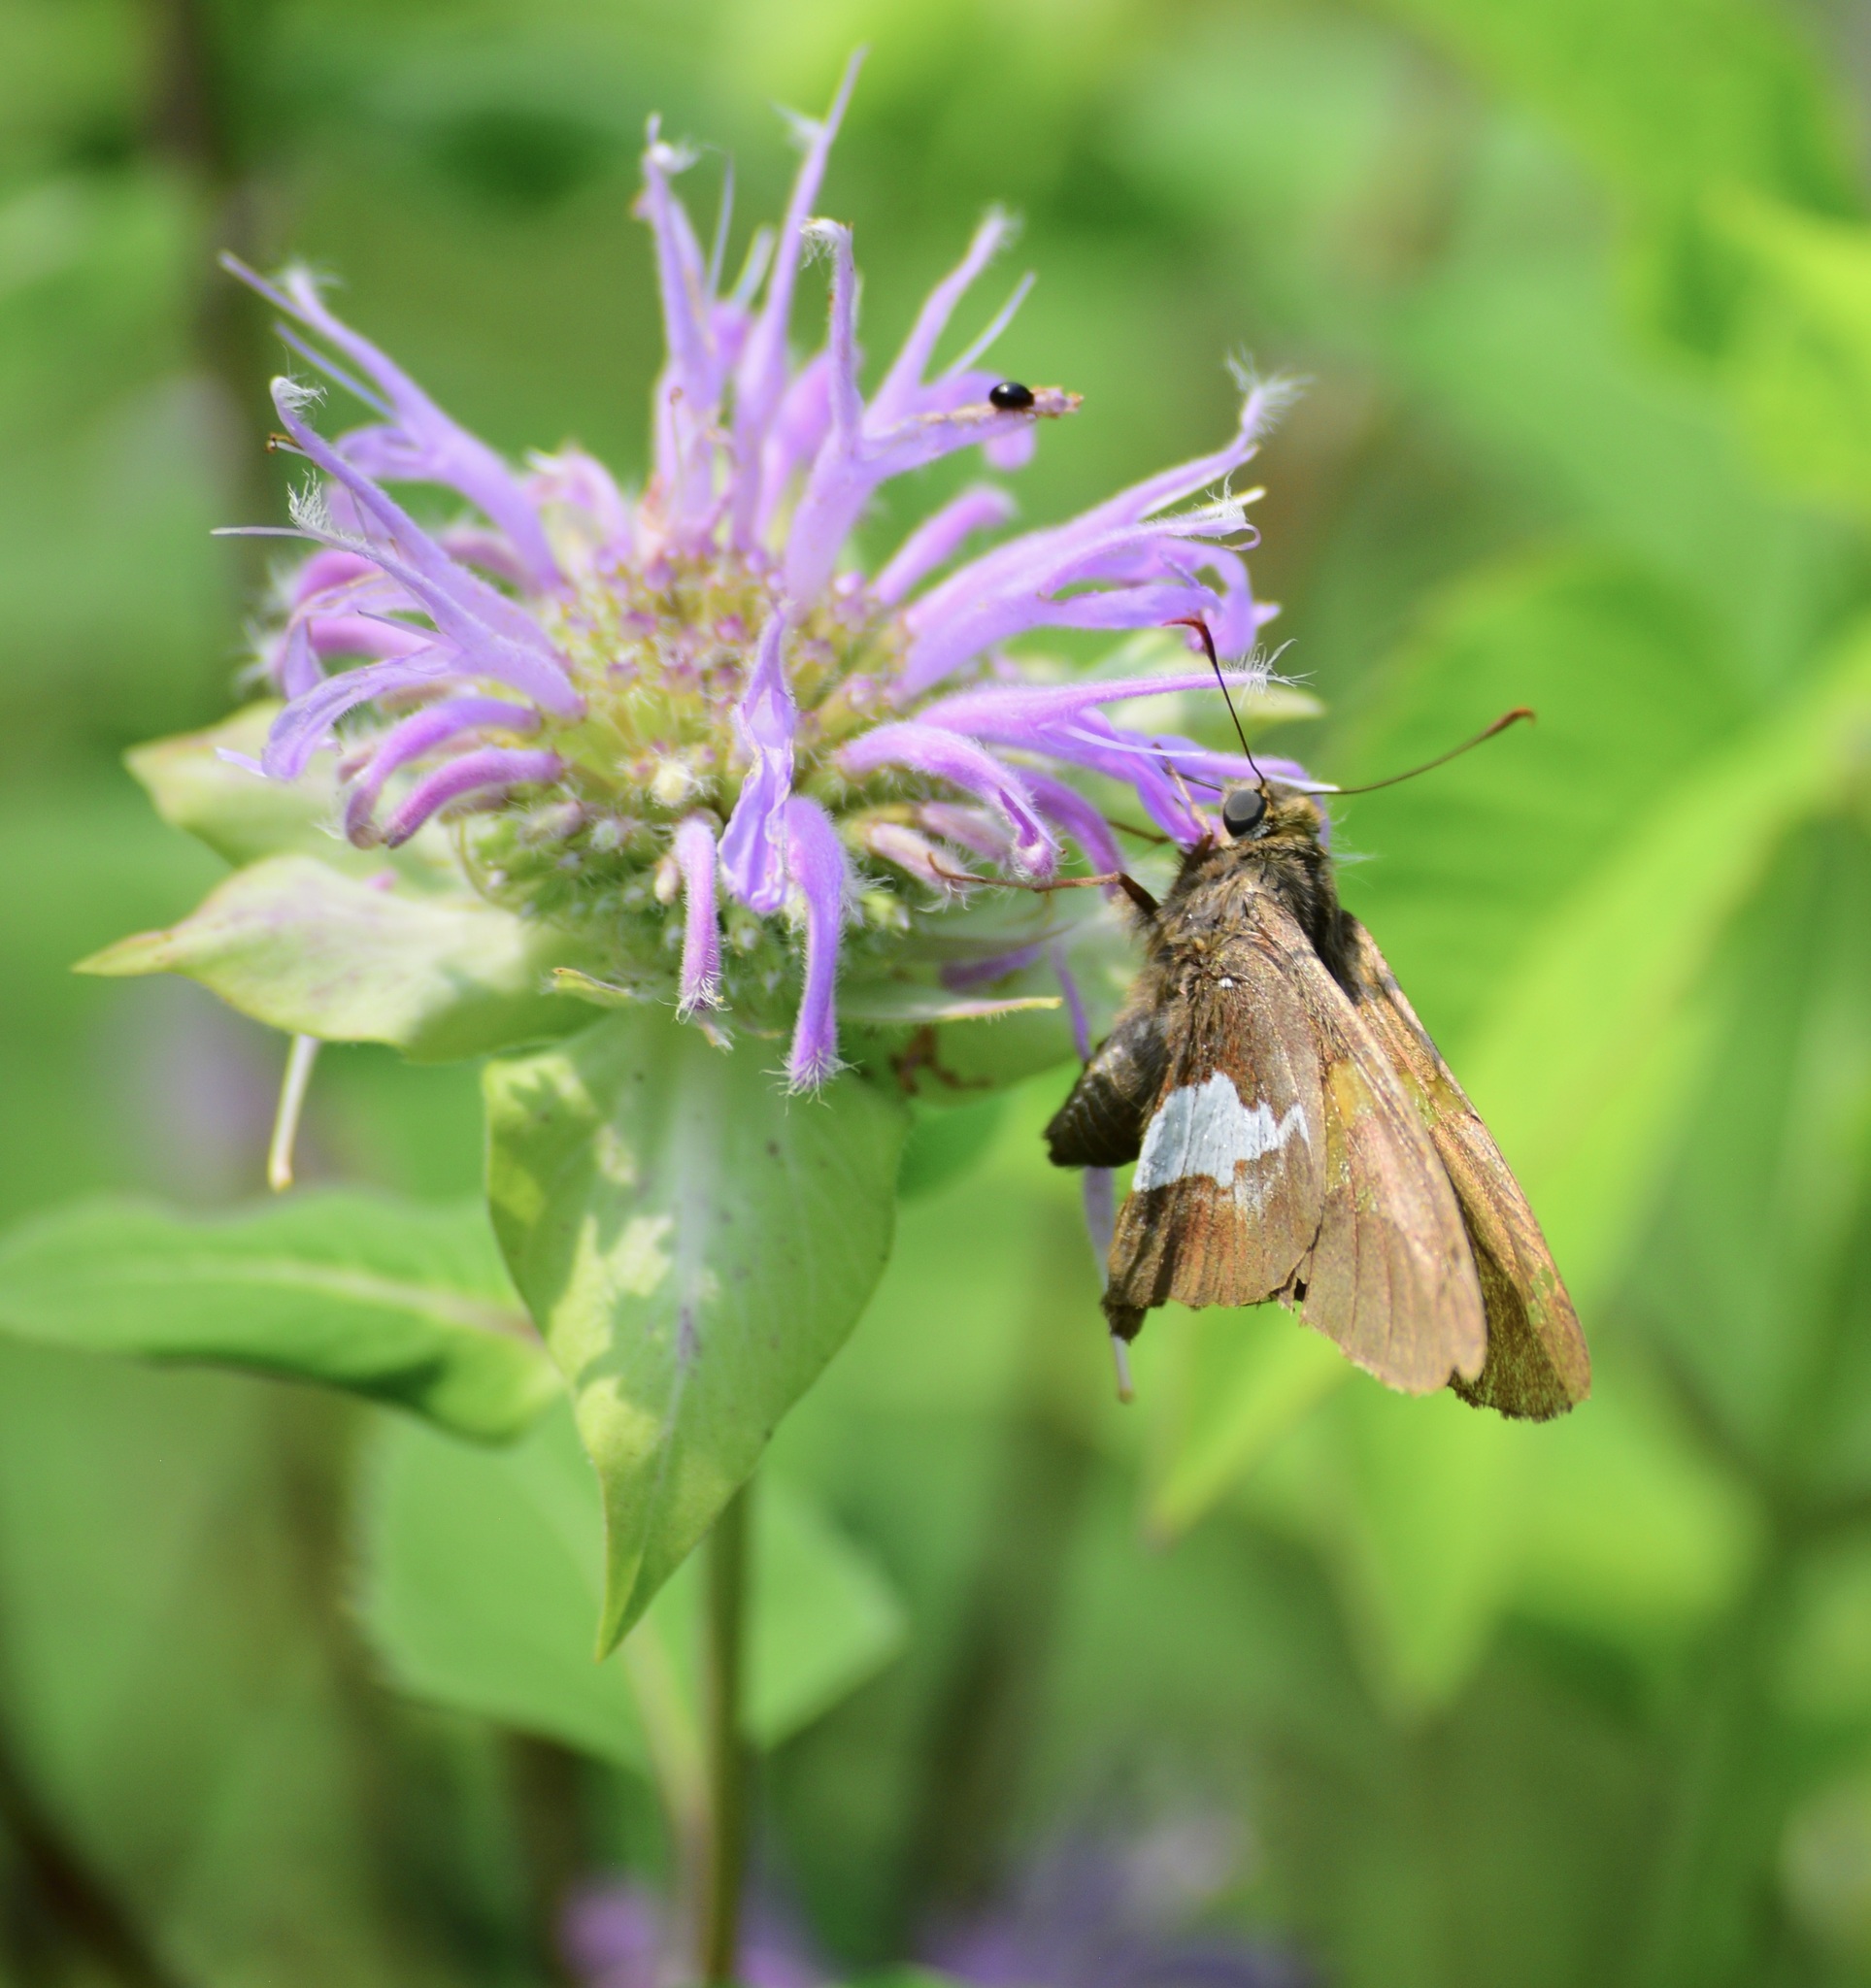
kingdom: Animalia
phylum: Arthropoda
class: Insecta
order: Lepidoptera
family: Hesperiidae
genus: Epargyreus
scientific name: Epargyreus clarus
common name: Silver-spotted skipper
